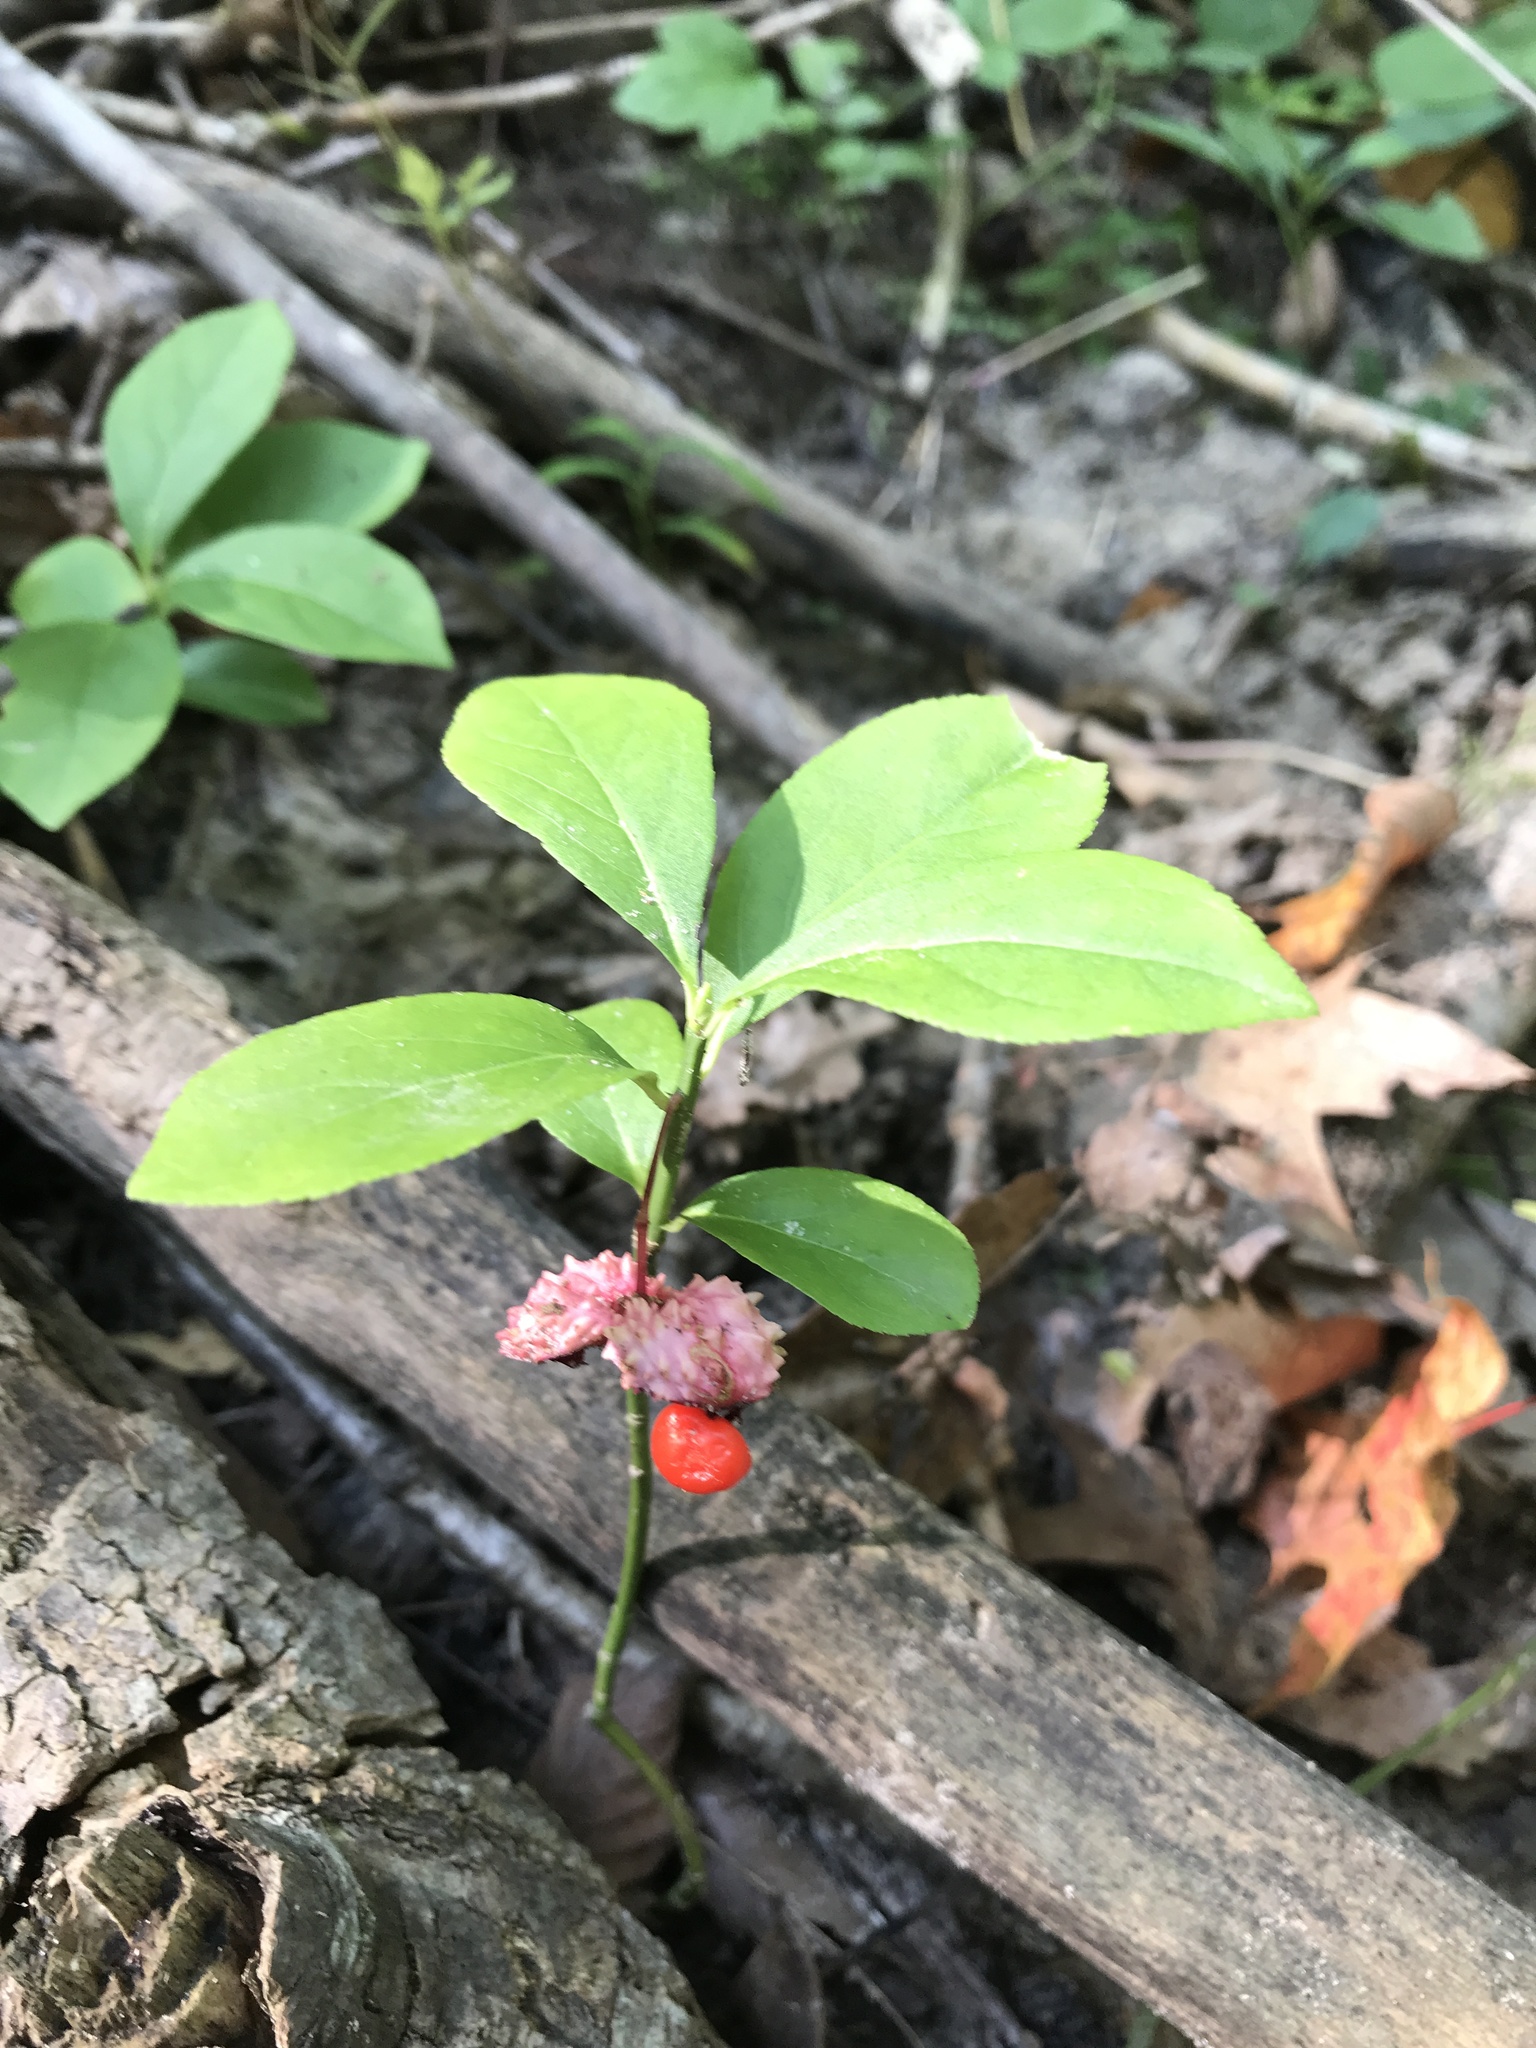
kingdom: Plantae
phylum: Tracheophyta
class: Magnoliopsida
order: Celastrales
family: Celastraceae
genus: Euonymus
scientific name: Euonymus obovatus
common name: Running strawberry-bush
